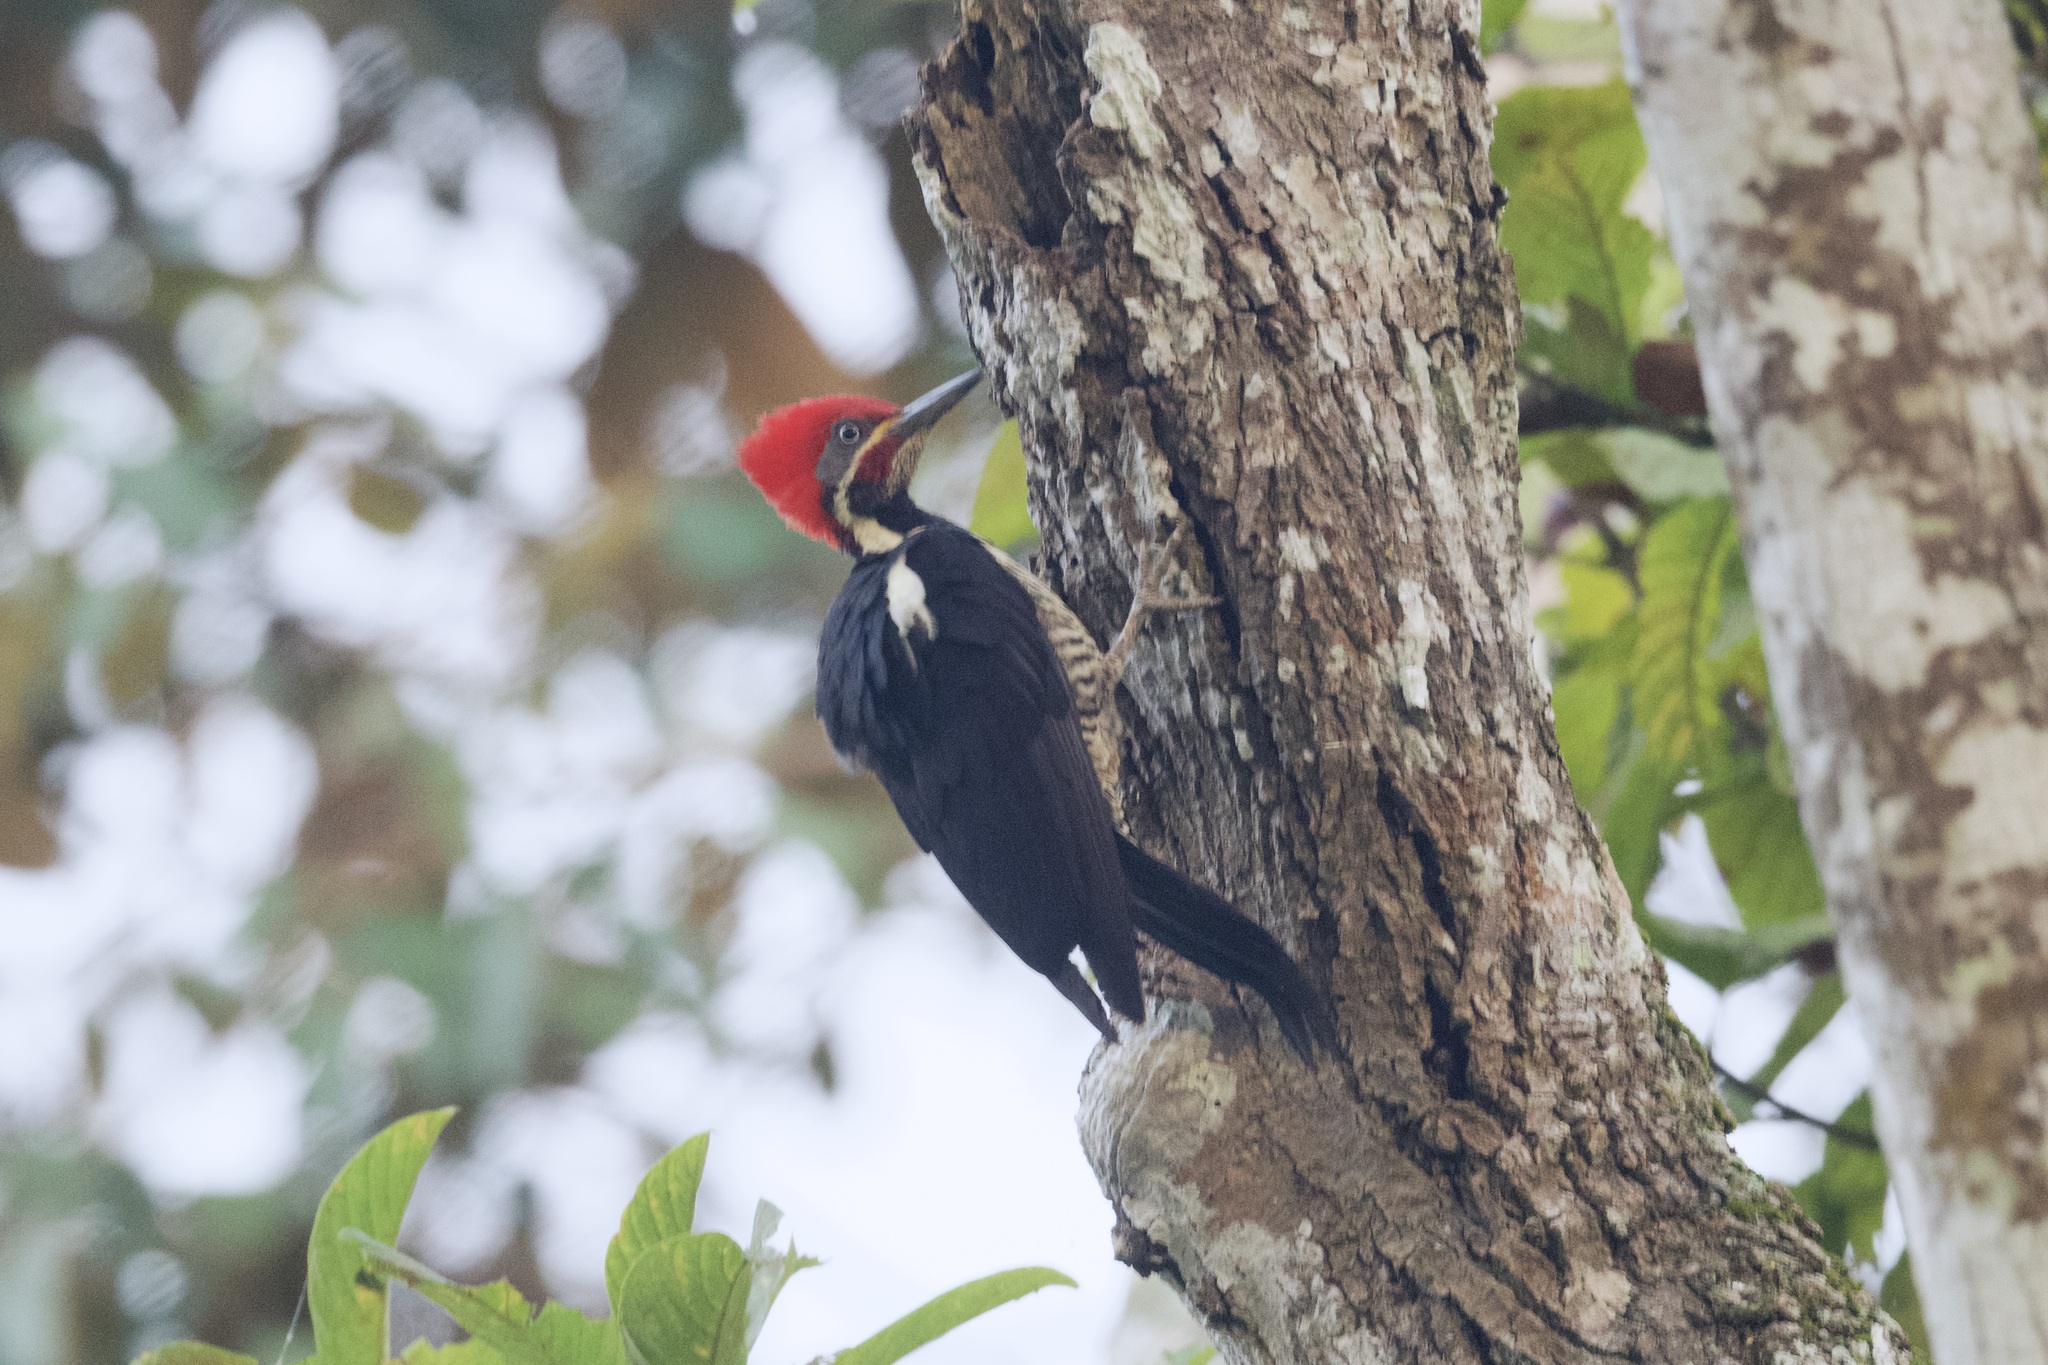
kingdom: Animalia
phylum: Chordata
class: Aves
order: Piciformes
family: Picidae
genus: Dryocopus
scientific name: Dryocopus lineatus
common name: Lineated woodpecker
